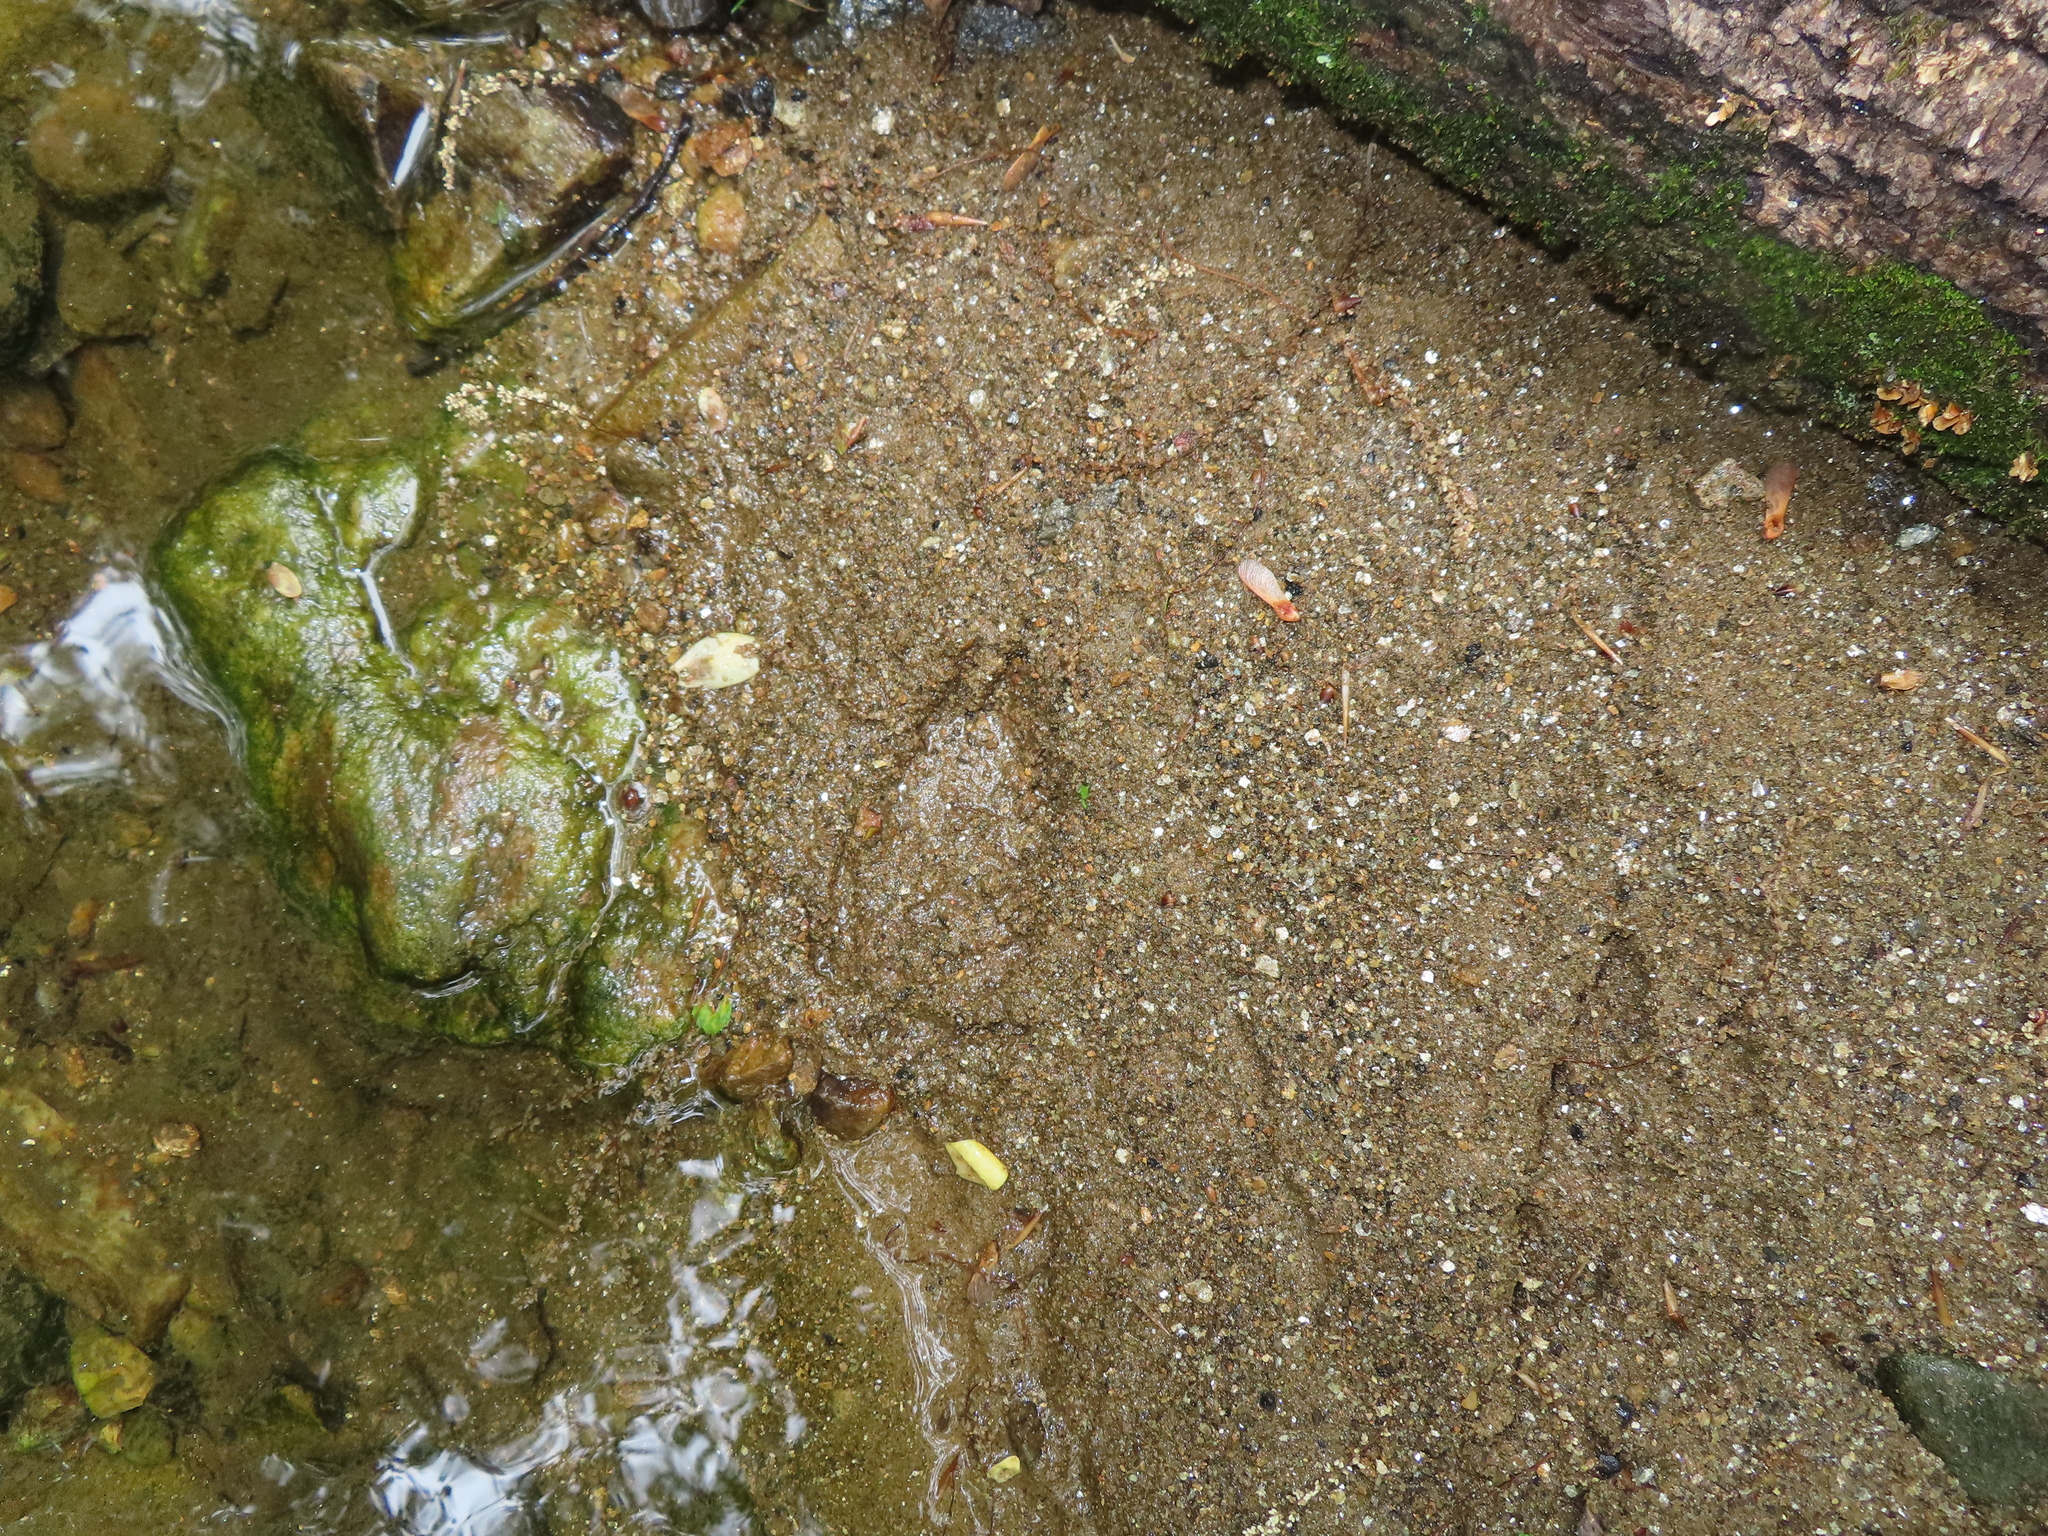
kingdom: Animalia
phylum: Chordata
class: Mammalia
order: Artiodactyla
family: Cervidae
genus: Odocoileus
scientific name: Odocoileus virginianus
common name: White-tailed deer
